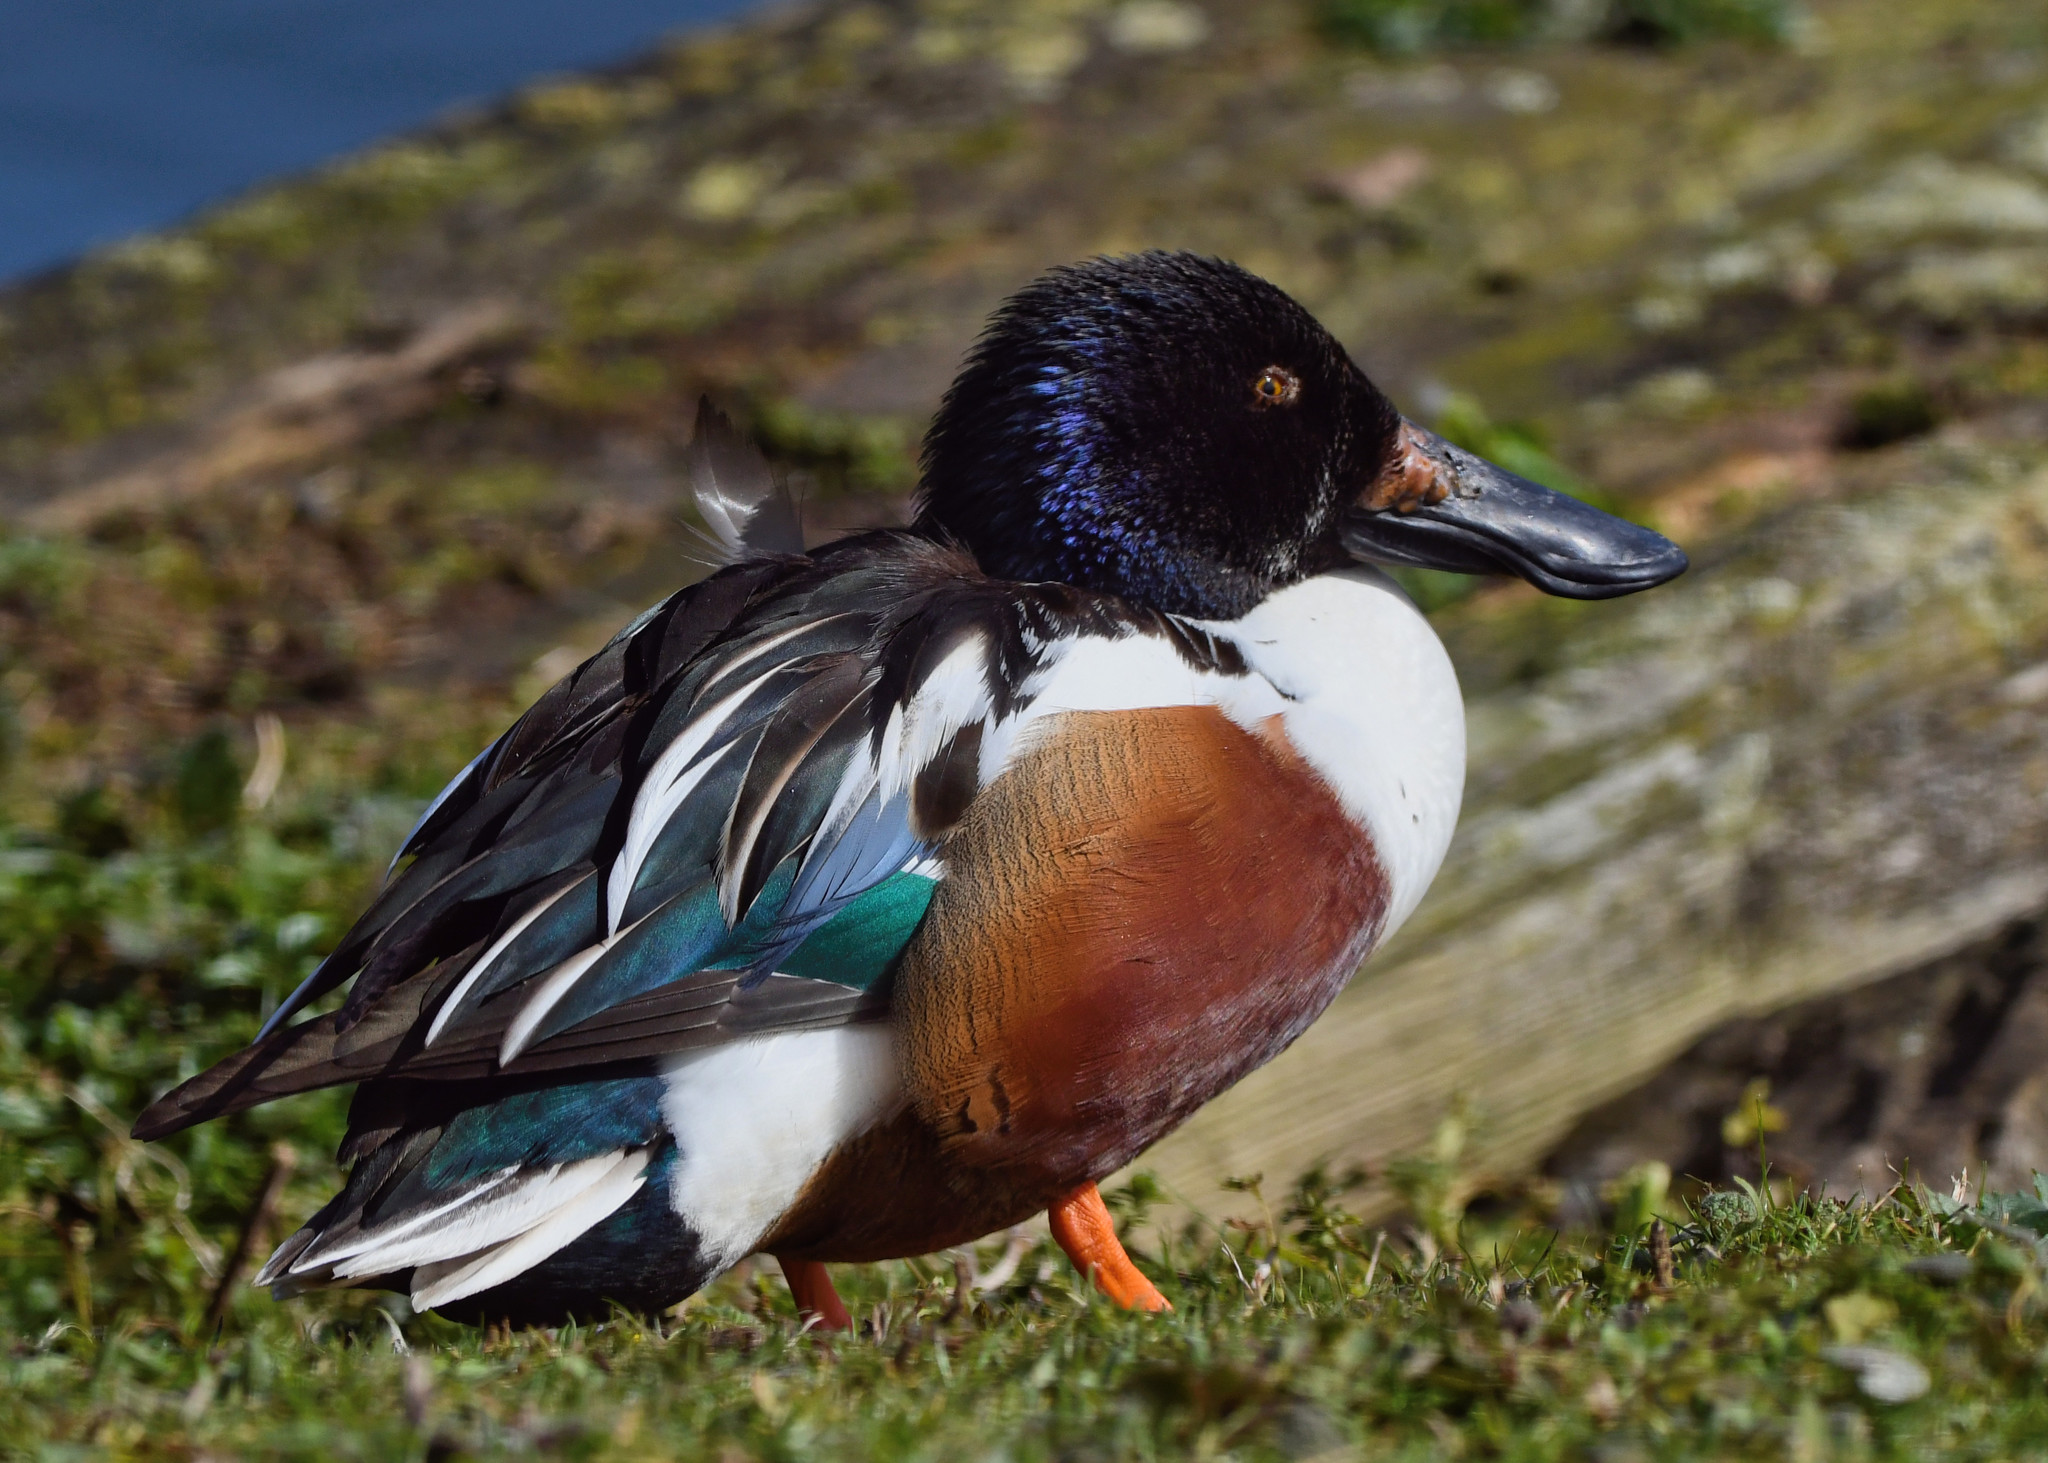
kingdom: Animalia
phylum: Chordata
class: Aves
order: Anseriformes
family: Anatidae
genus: Spatula
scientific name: Spatula clypeata
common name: Northern shoveler
